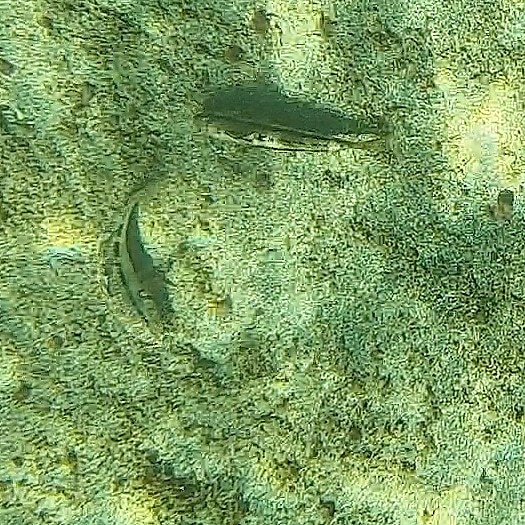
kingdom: Animalia
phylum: Chordata
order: Perciformes
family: Mullidae
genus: Upeneichthys
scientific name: Upeneichthys lineatus
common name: Red mullet
